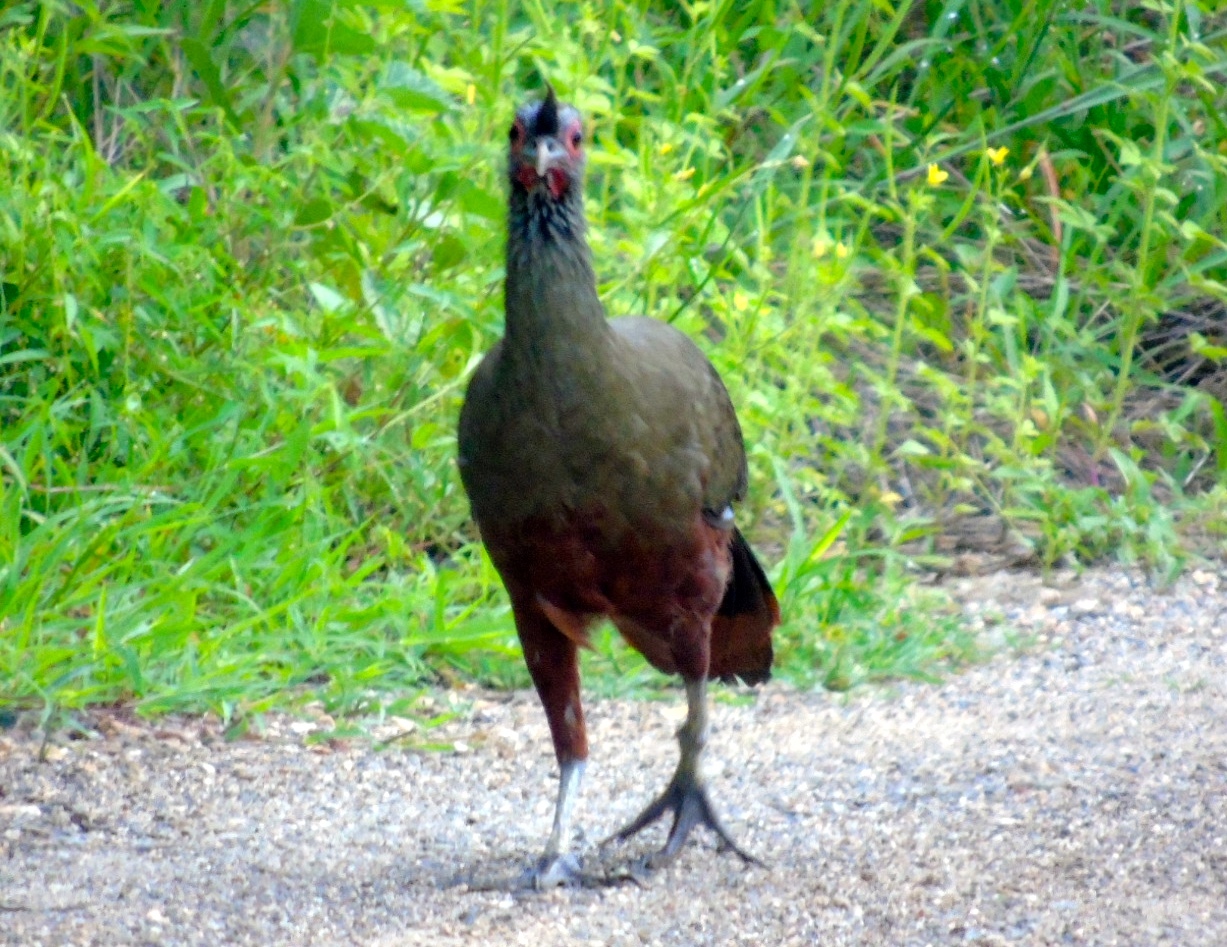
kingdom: Animalia
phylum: Chordata
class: Aves
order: Galliformes
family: Cracidae
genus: Ortalis
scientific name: Ortalis wagleri
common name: Rufous-bellied chachalaca
